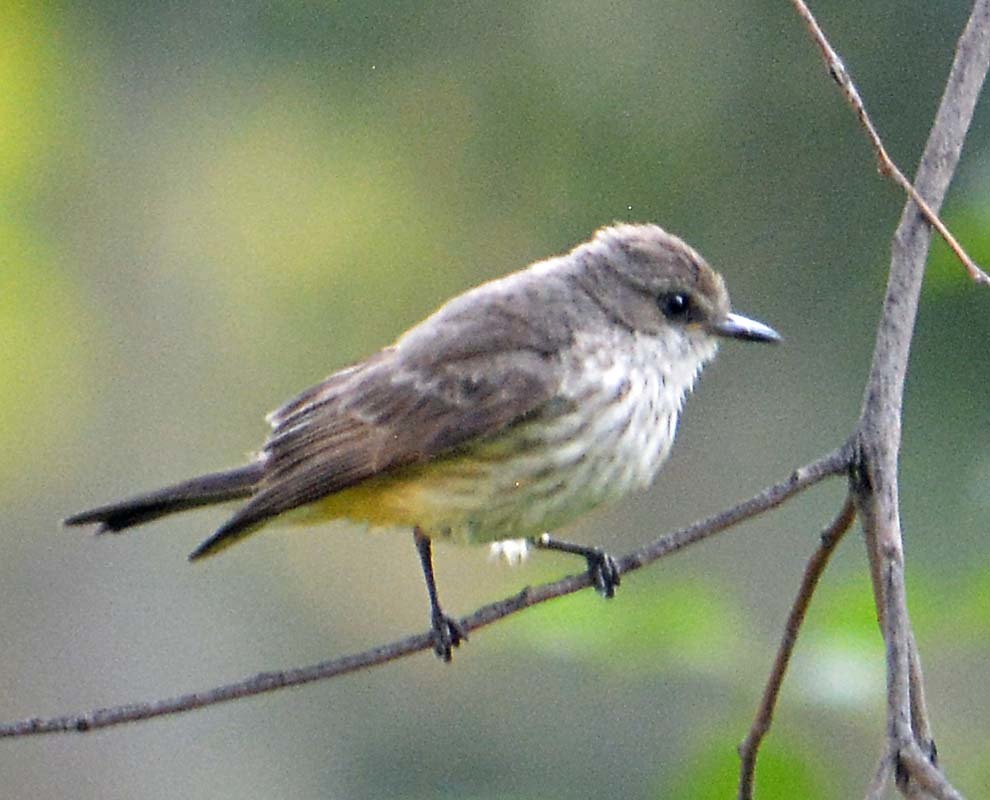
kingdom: Animalia
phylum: Chordata
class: Aves
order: Passeriformes
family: Tyrannidae
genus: Pyrocephalus
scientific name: Pyrocephalus rubinus
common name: Vermilion flycatcher
